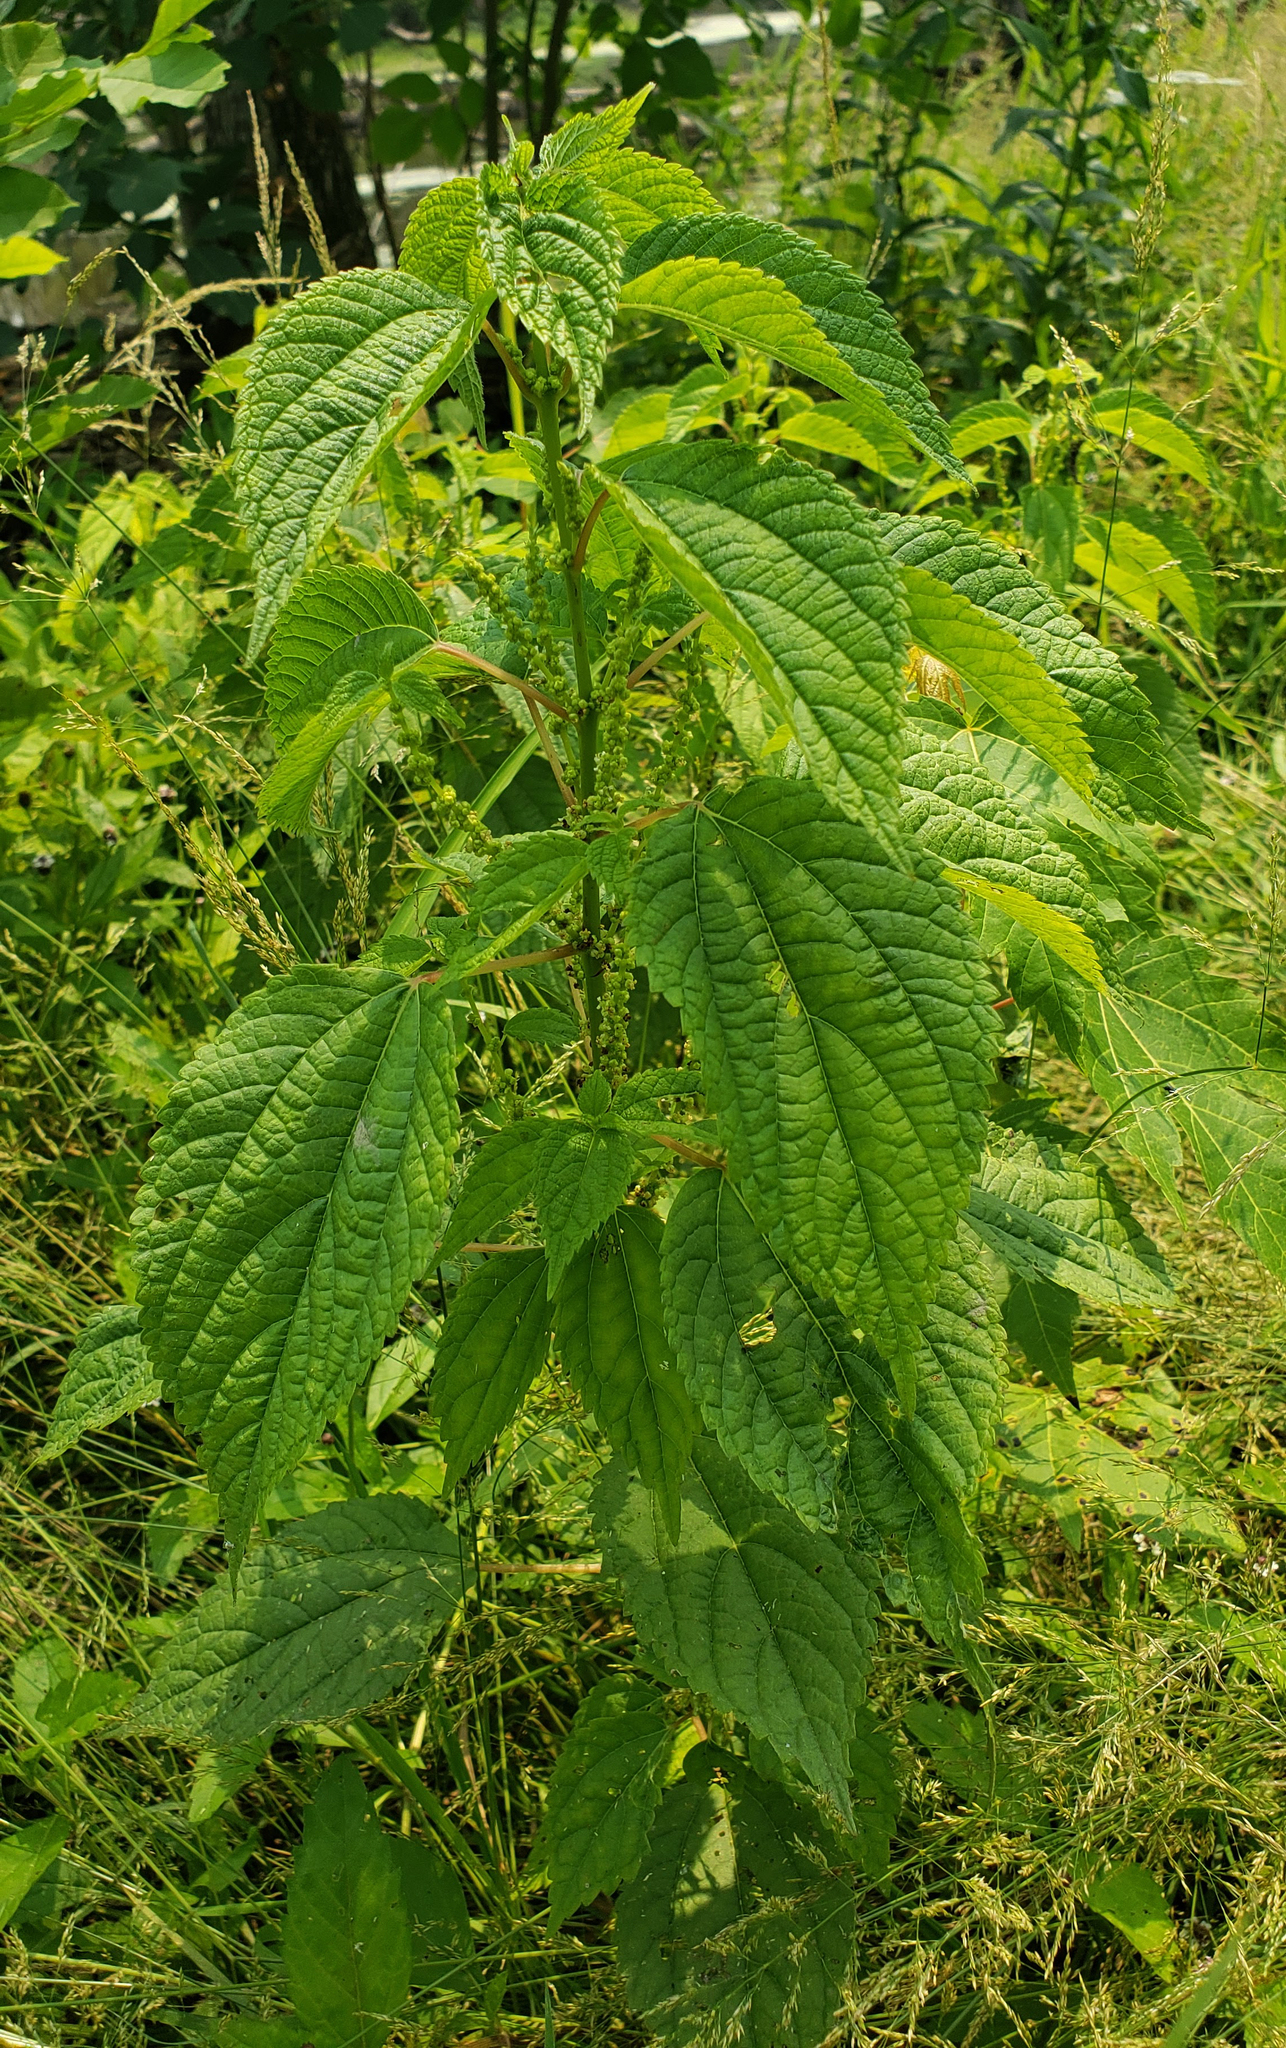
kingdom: Plantae
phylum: Tracheophyta
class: Magnoliopsida
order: Rosales
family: Urticaceae
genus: Boehmeria
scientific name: Boehmeria cylindrica
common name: Bog-hemp
